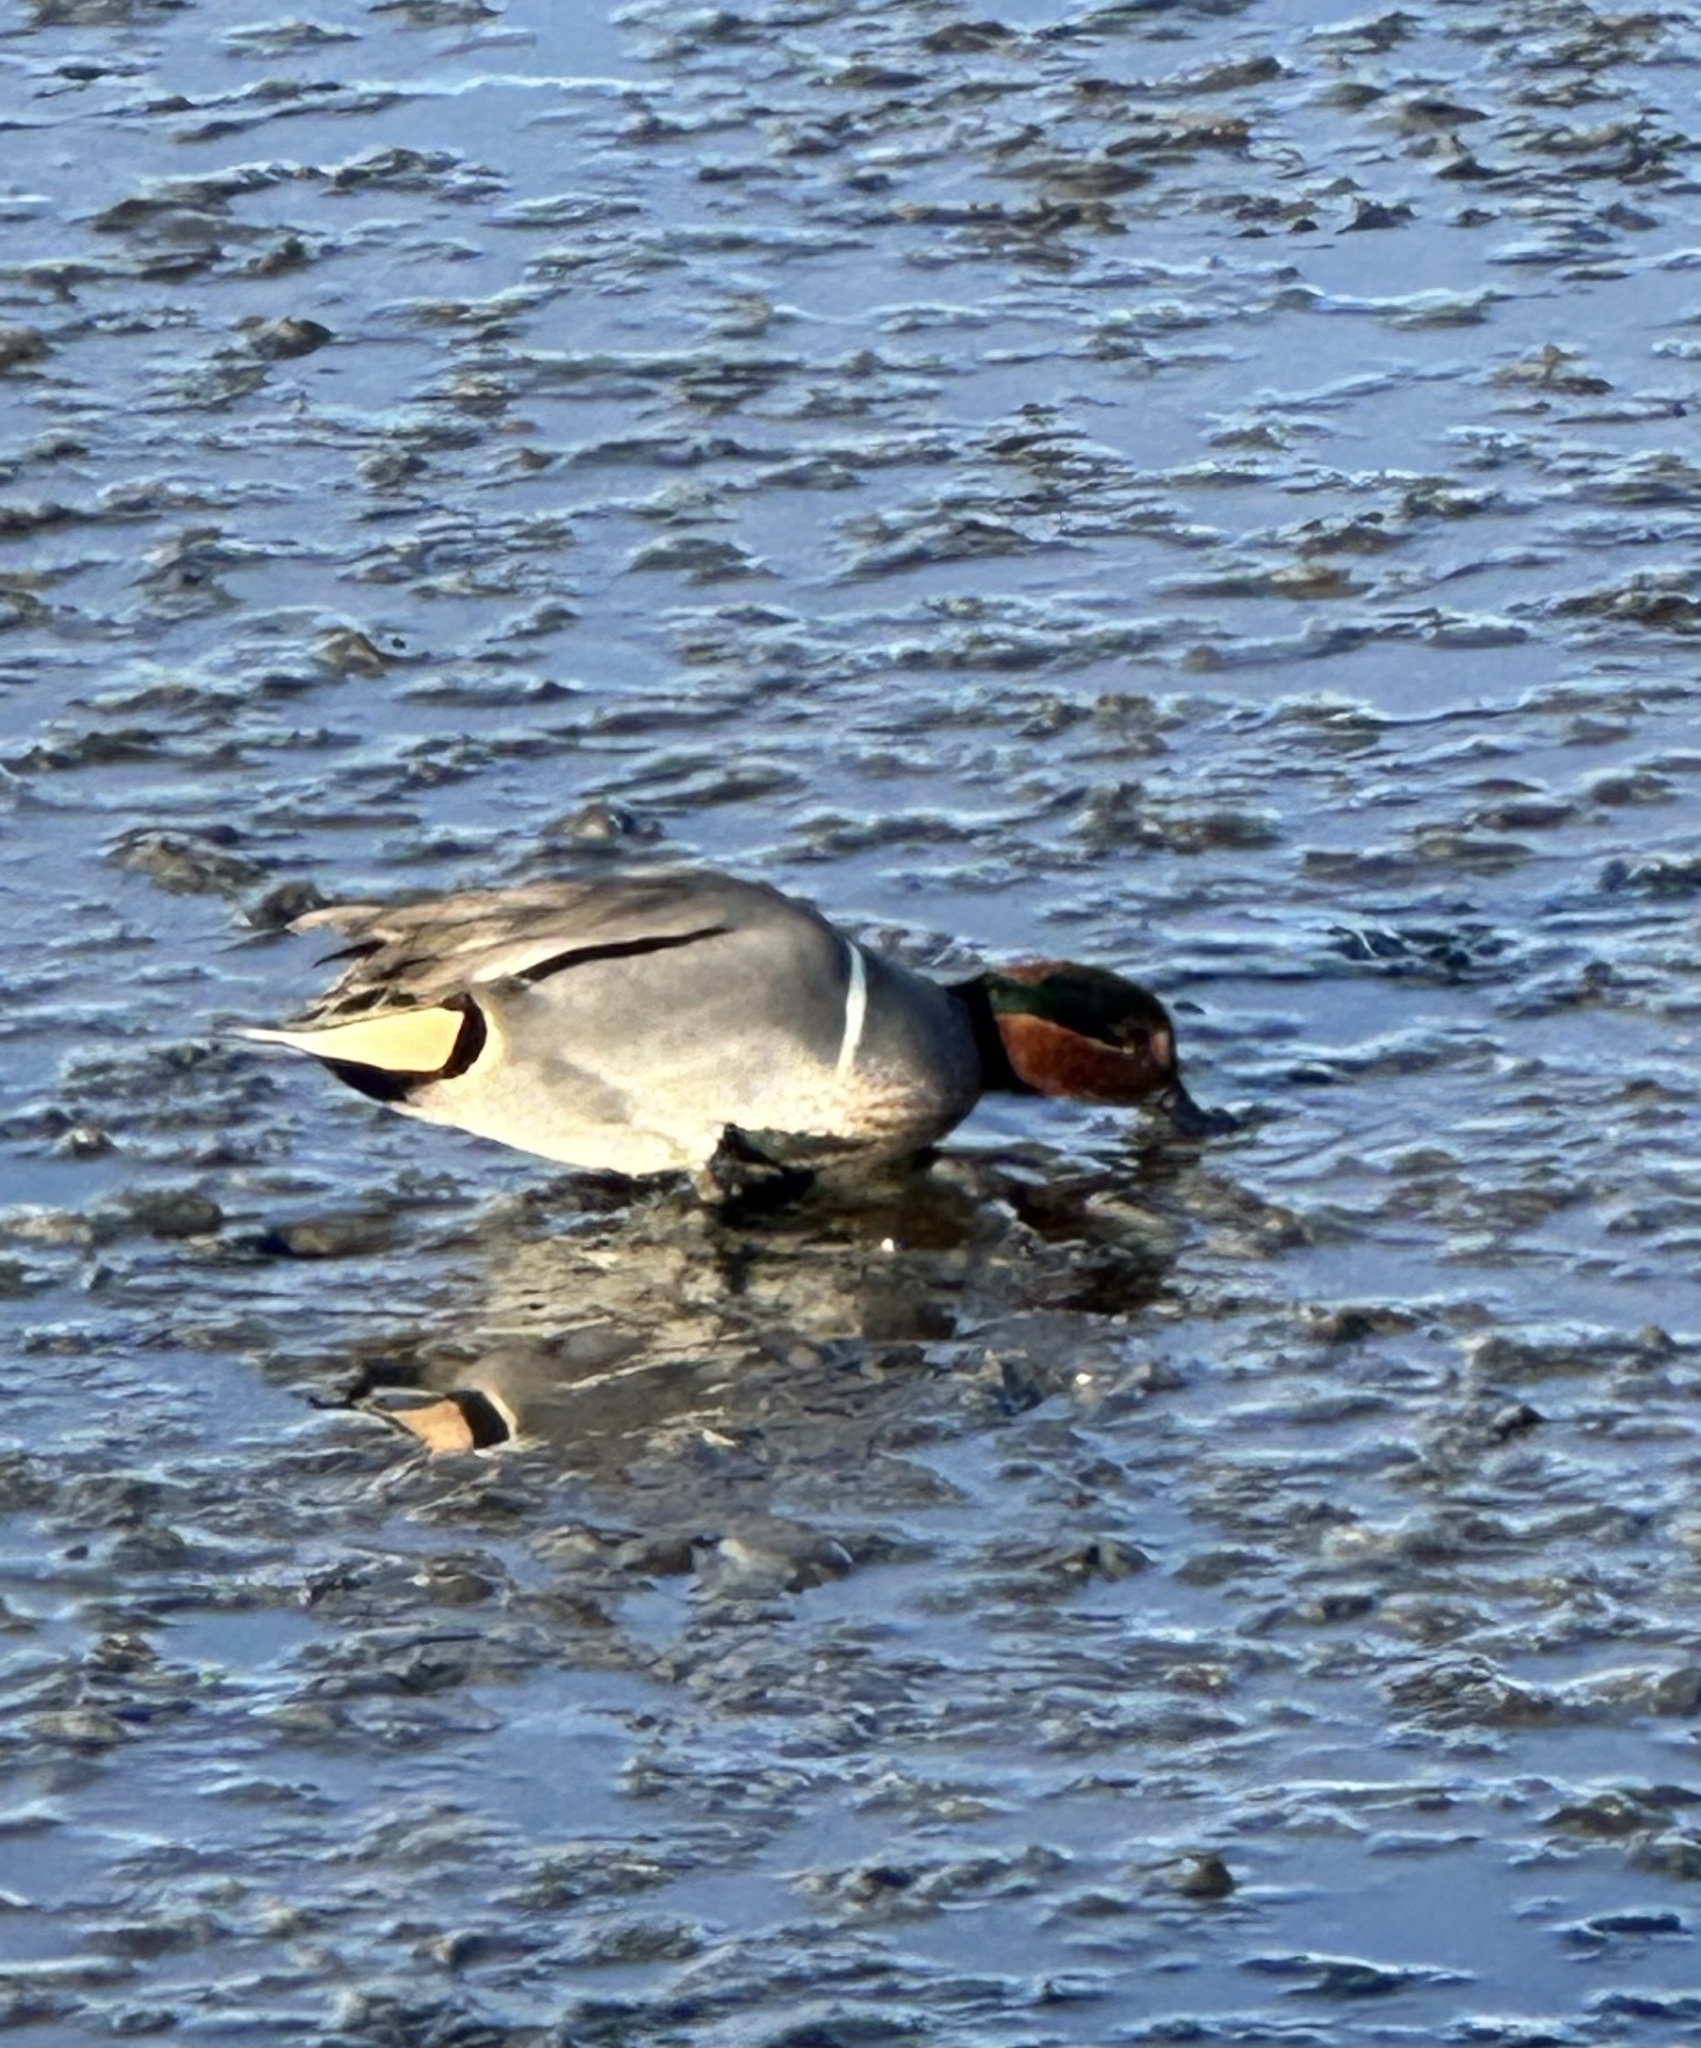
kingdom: Animalia
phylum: Chordata
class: Aves
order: Anseriformes
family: Anatidae
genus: Anas
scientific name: Anas crecca
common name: Eurasian teal
